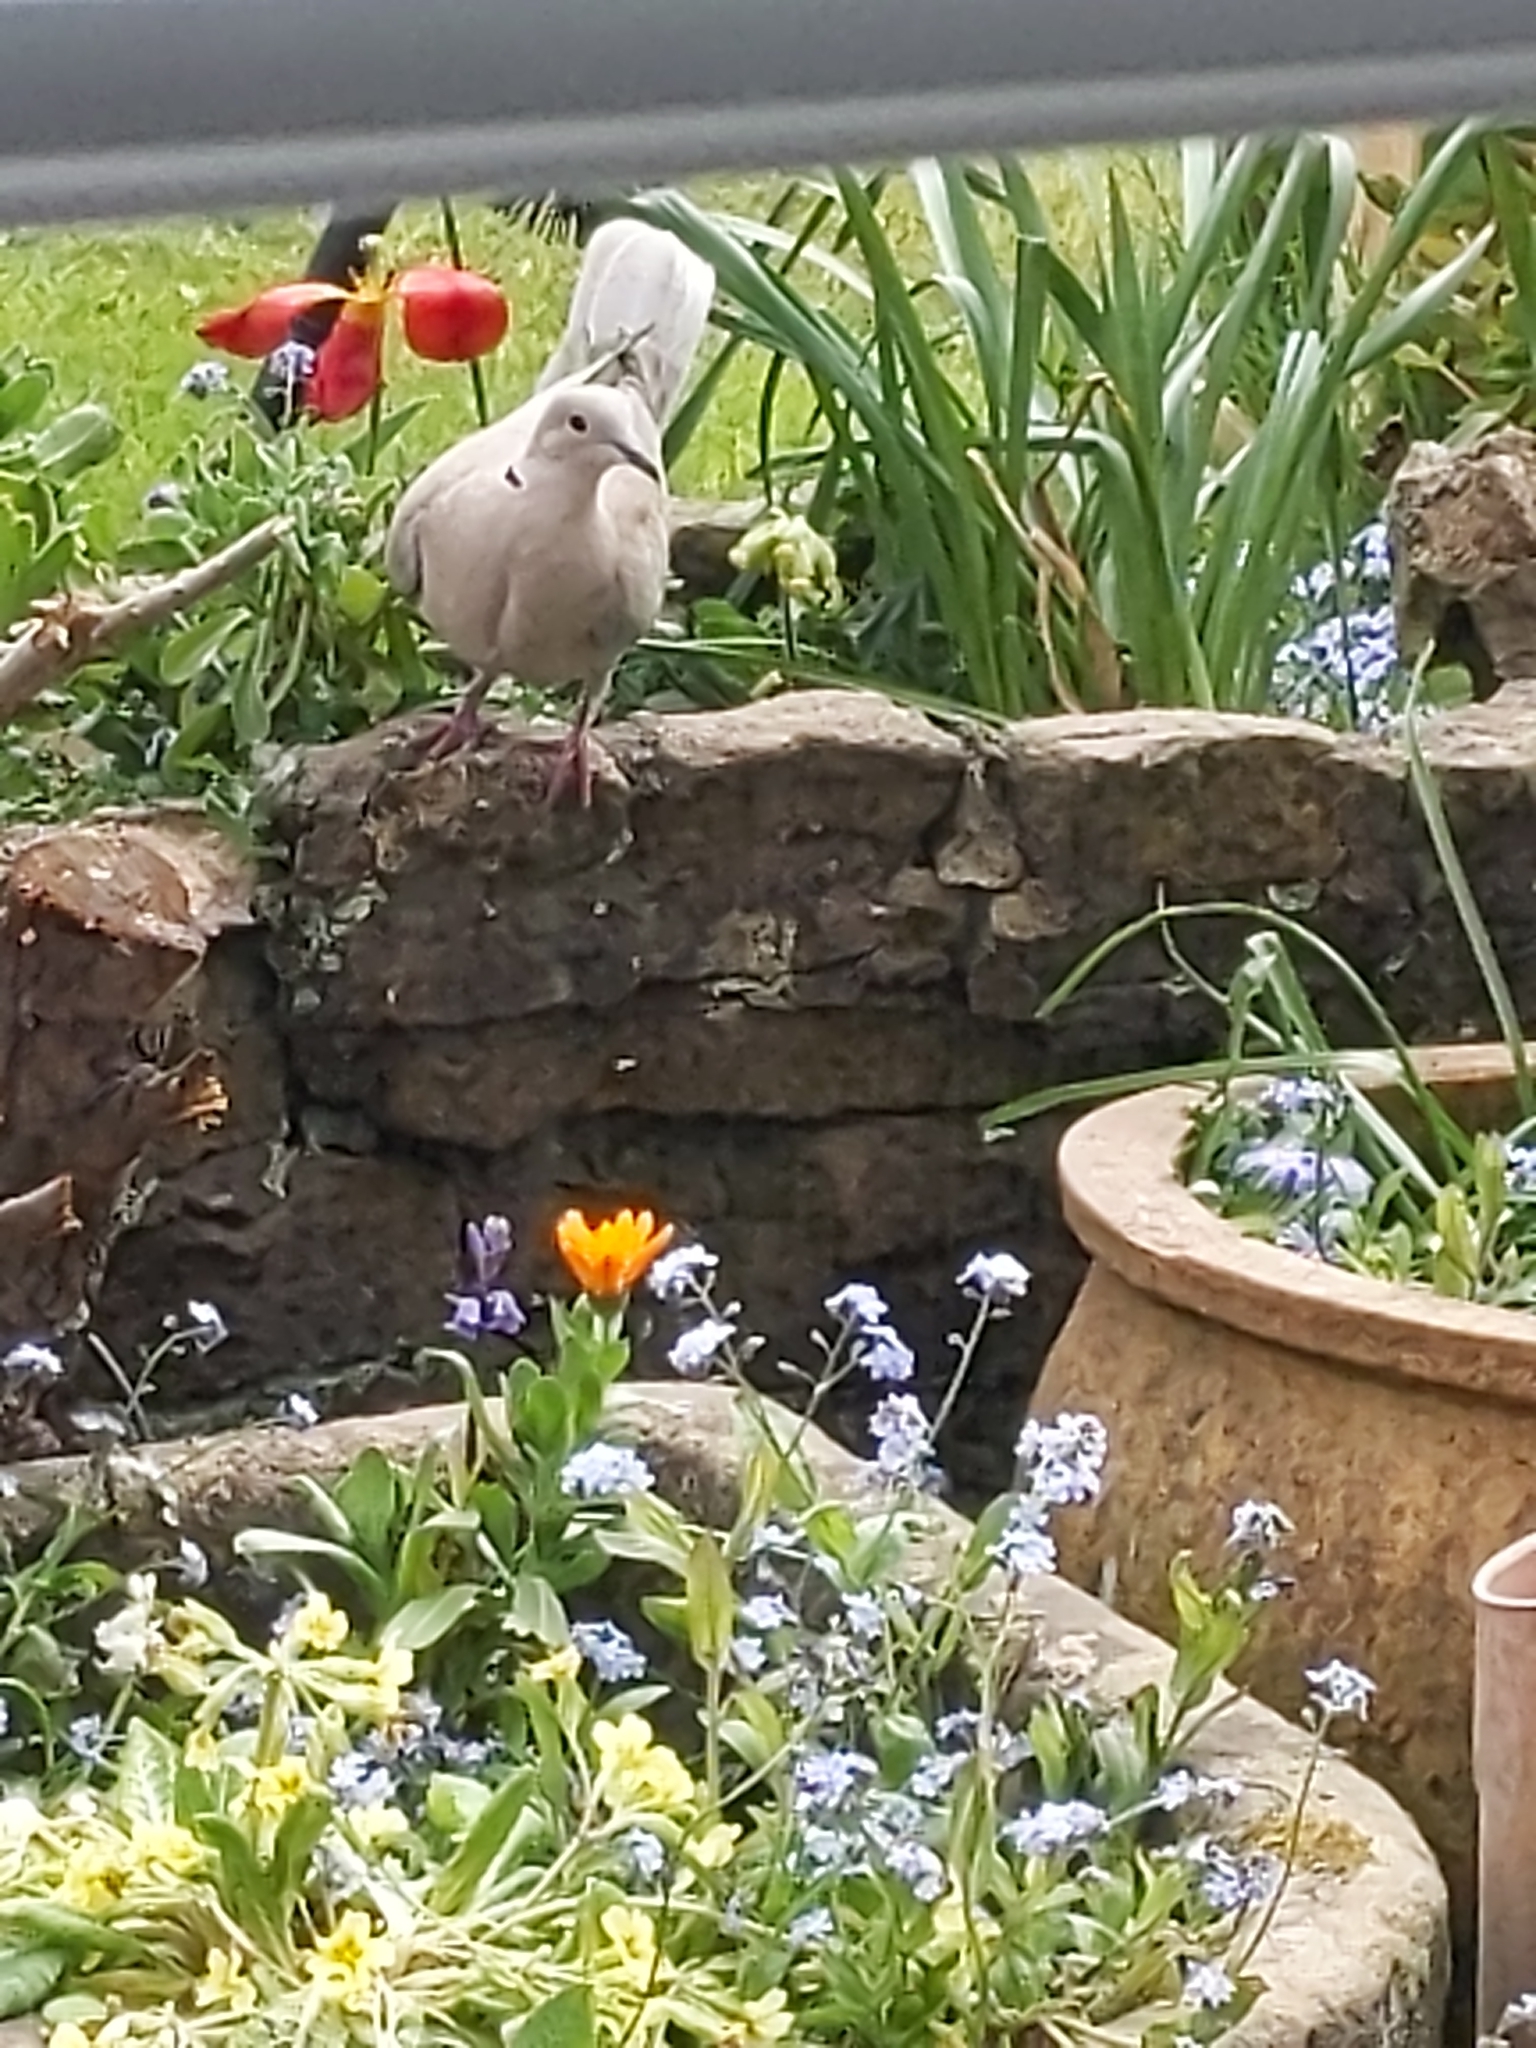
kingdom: Animalia
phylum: Chordata
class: Aves
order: Columbiformes
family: Columbidae
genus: Streptopelia
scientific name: Streptopelia decaocto
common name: Eurasian collared dove
